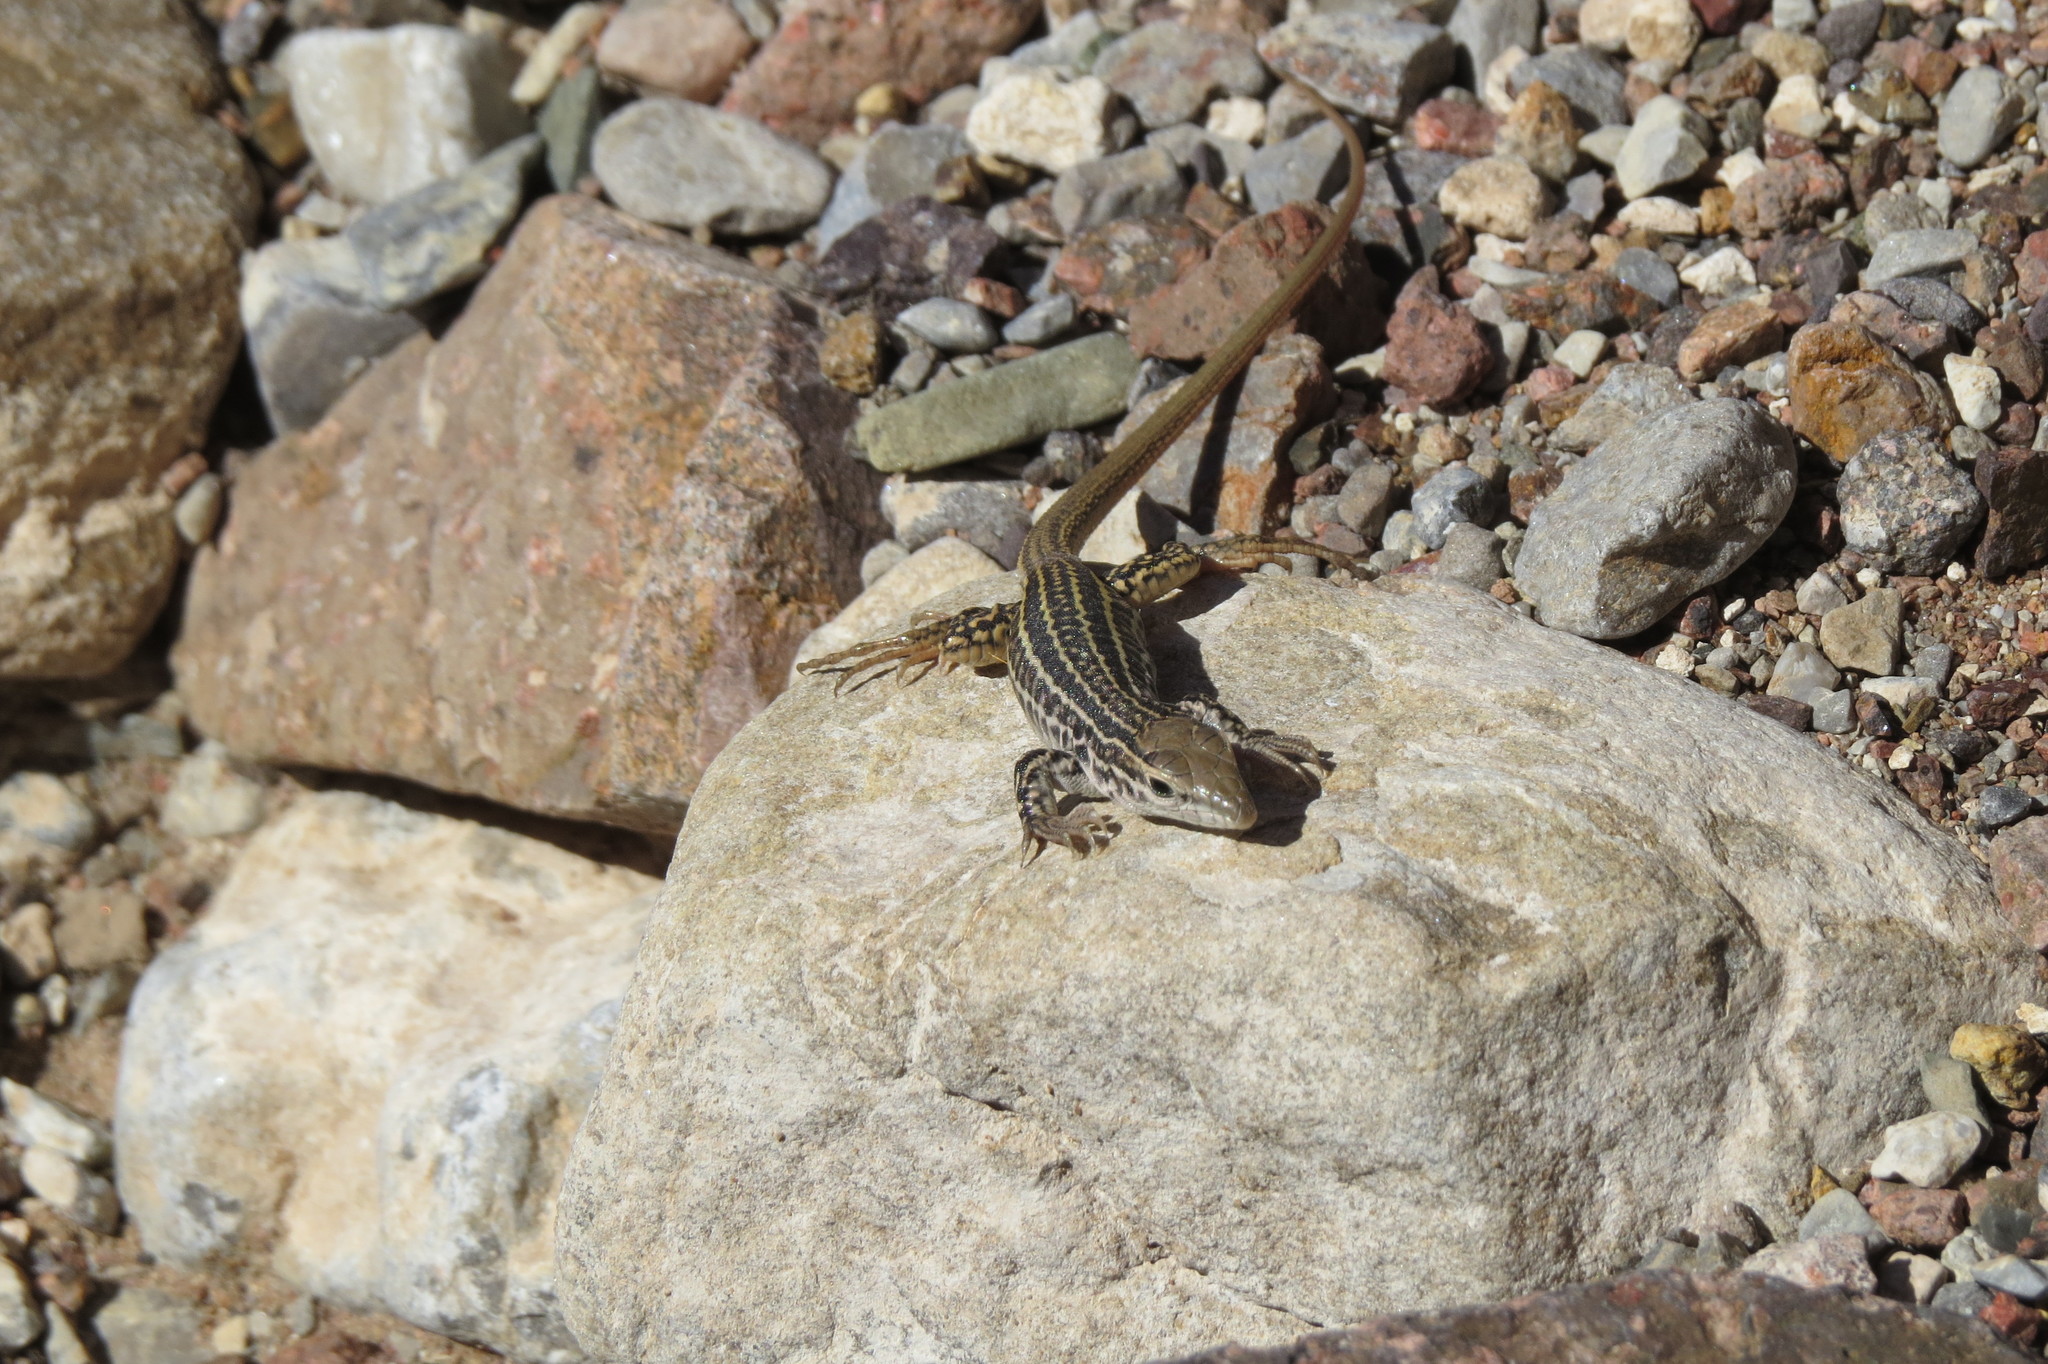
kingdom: Animalia
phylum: Chordata
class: Squamata
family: Teiidae
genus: Aspidoscelis
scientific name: Aspidoscelis tesselatus
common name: Common checkered whiptail [tesselata]
